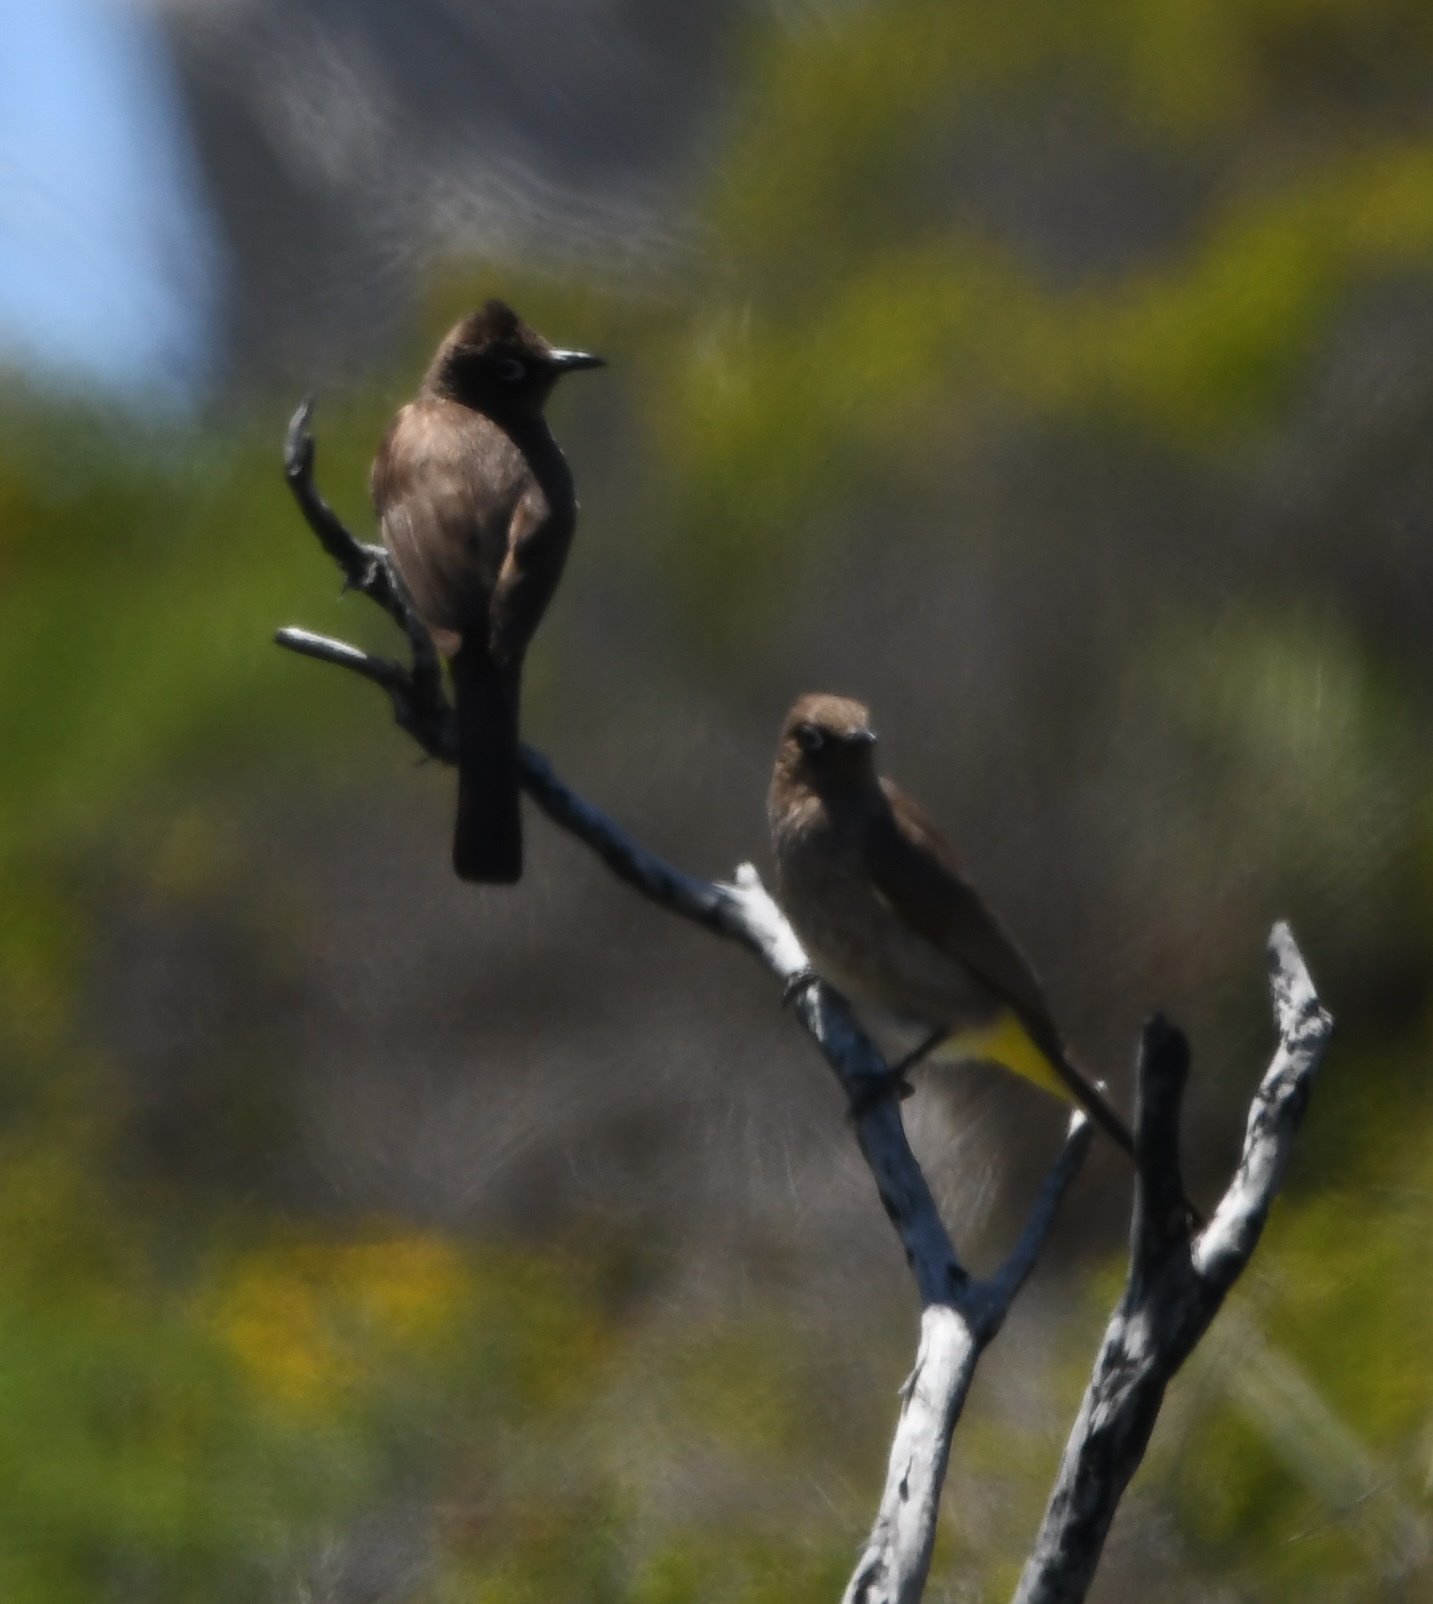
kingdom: Animalia
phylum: Chordata
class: Aves
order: Passeriformes
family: Pycnonotidae
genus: Pycnonotus
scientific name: Pycnonotus capensis
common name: Cape bulbul
